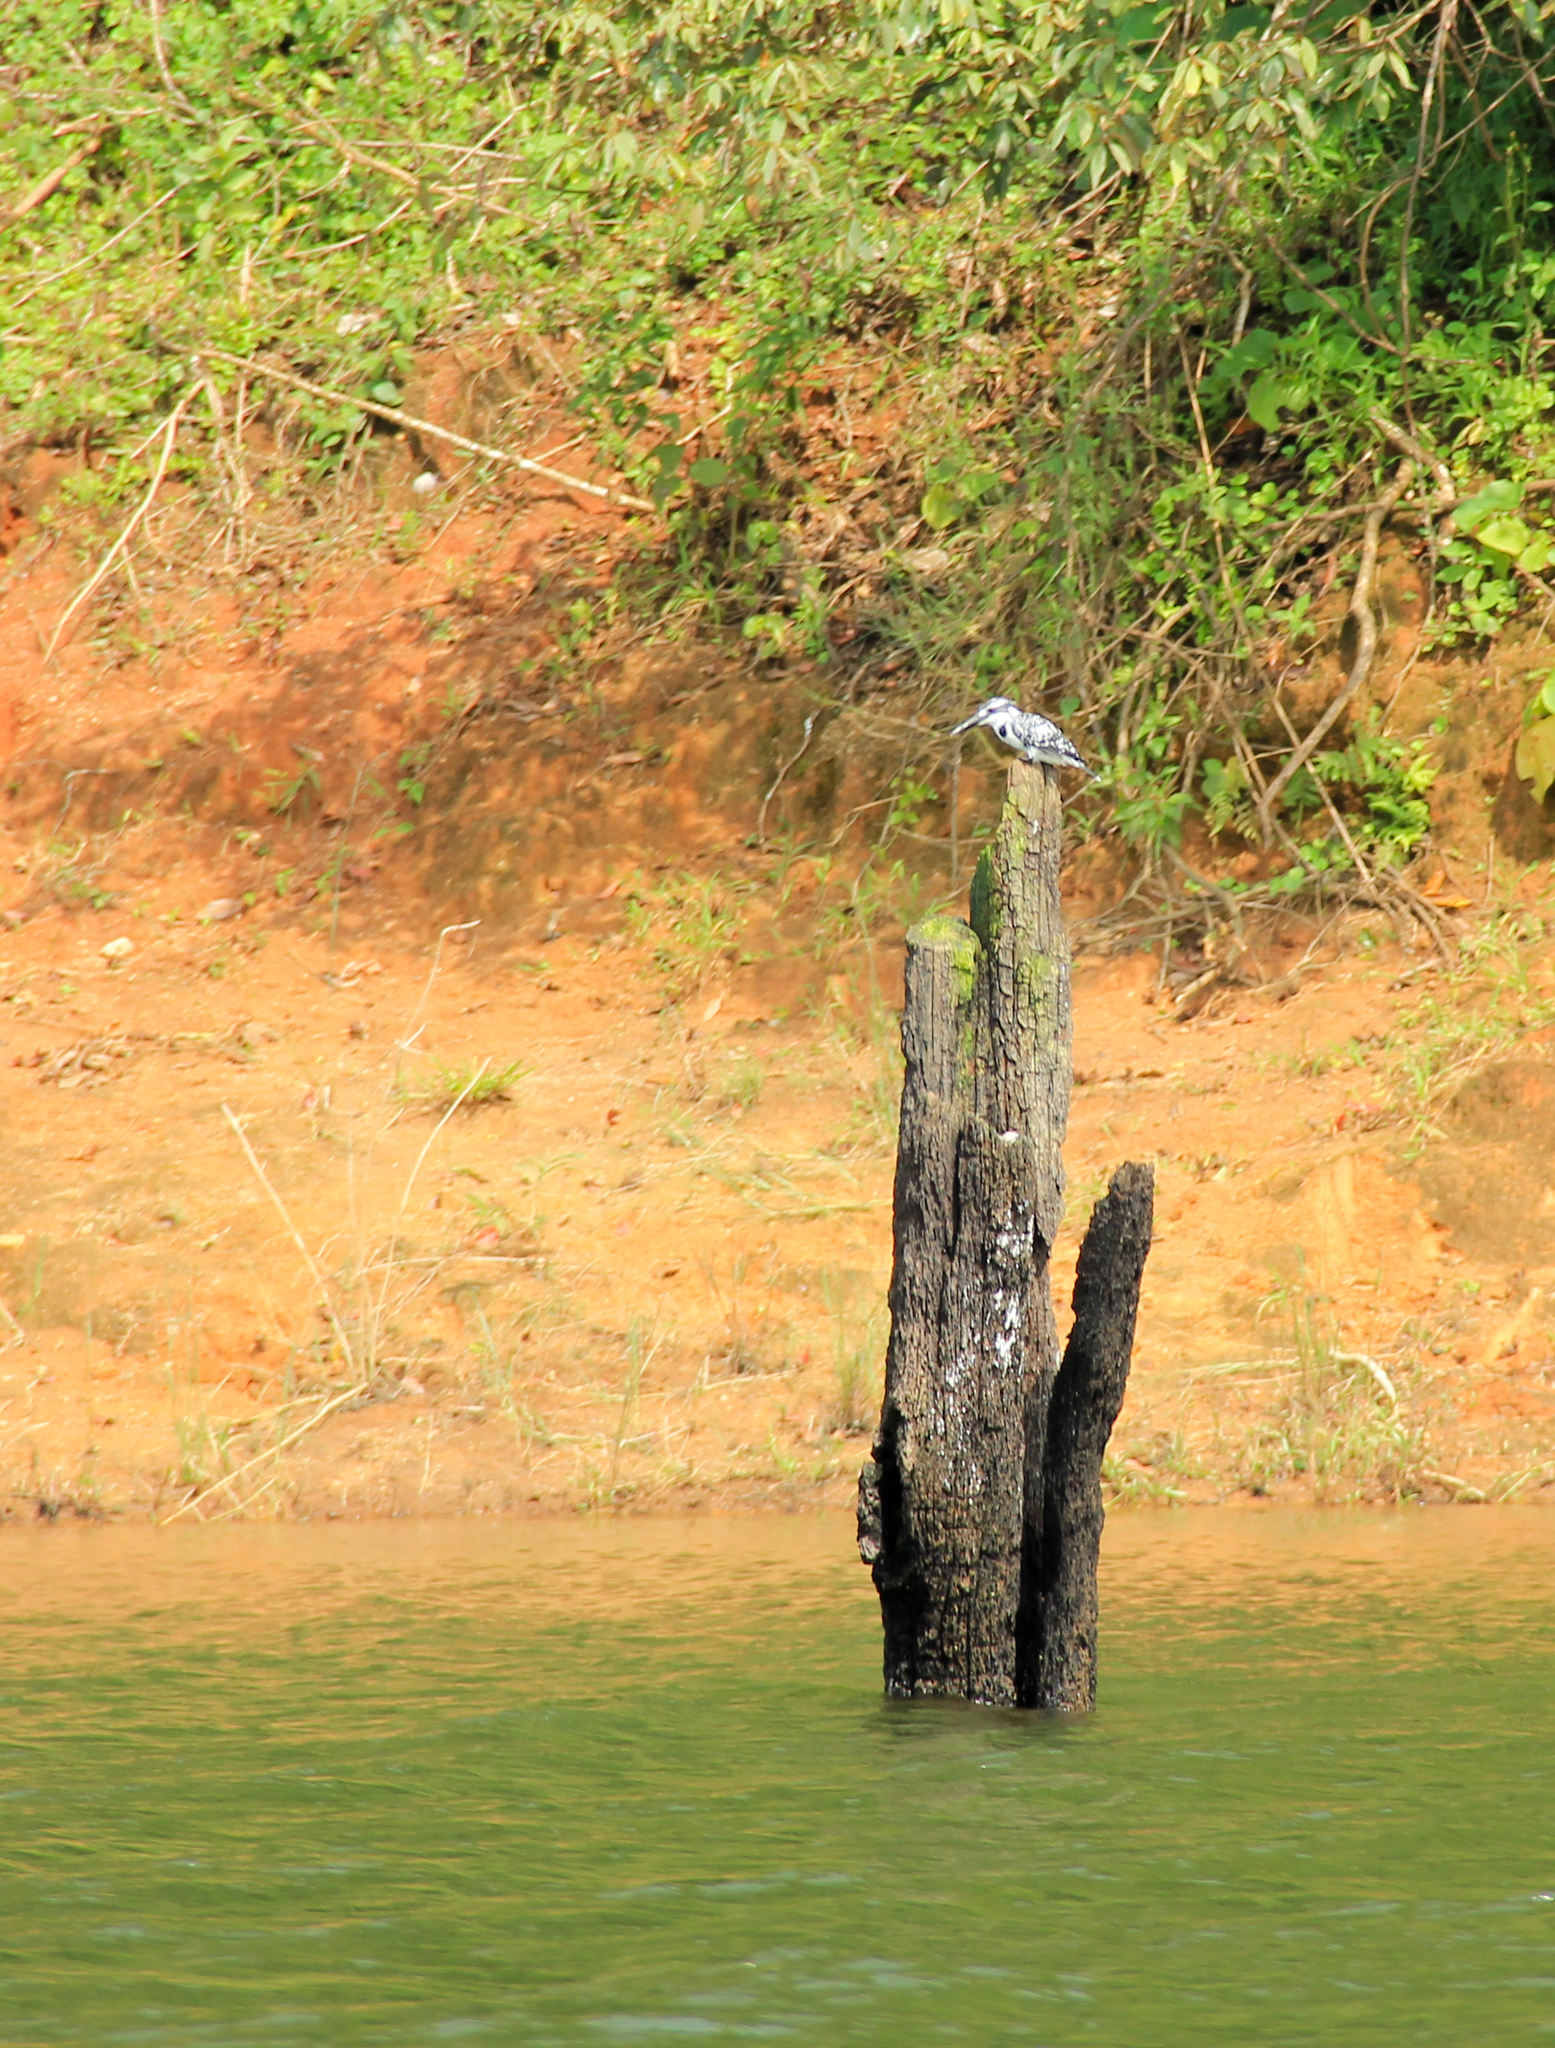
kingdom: Animalia
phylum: Chordata
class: Aves
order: Coraciiformes
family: Alcedinidae
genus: Ceryle
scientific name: Ceryle rudis
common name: Pied kingfisher
